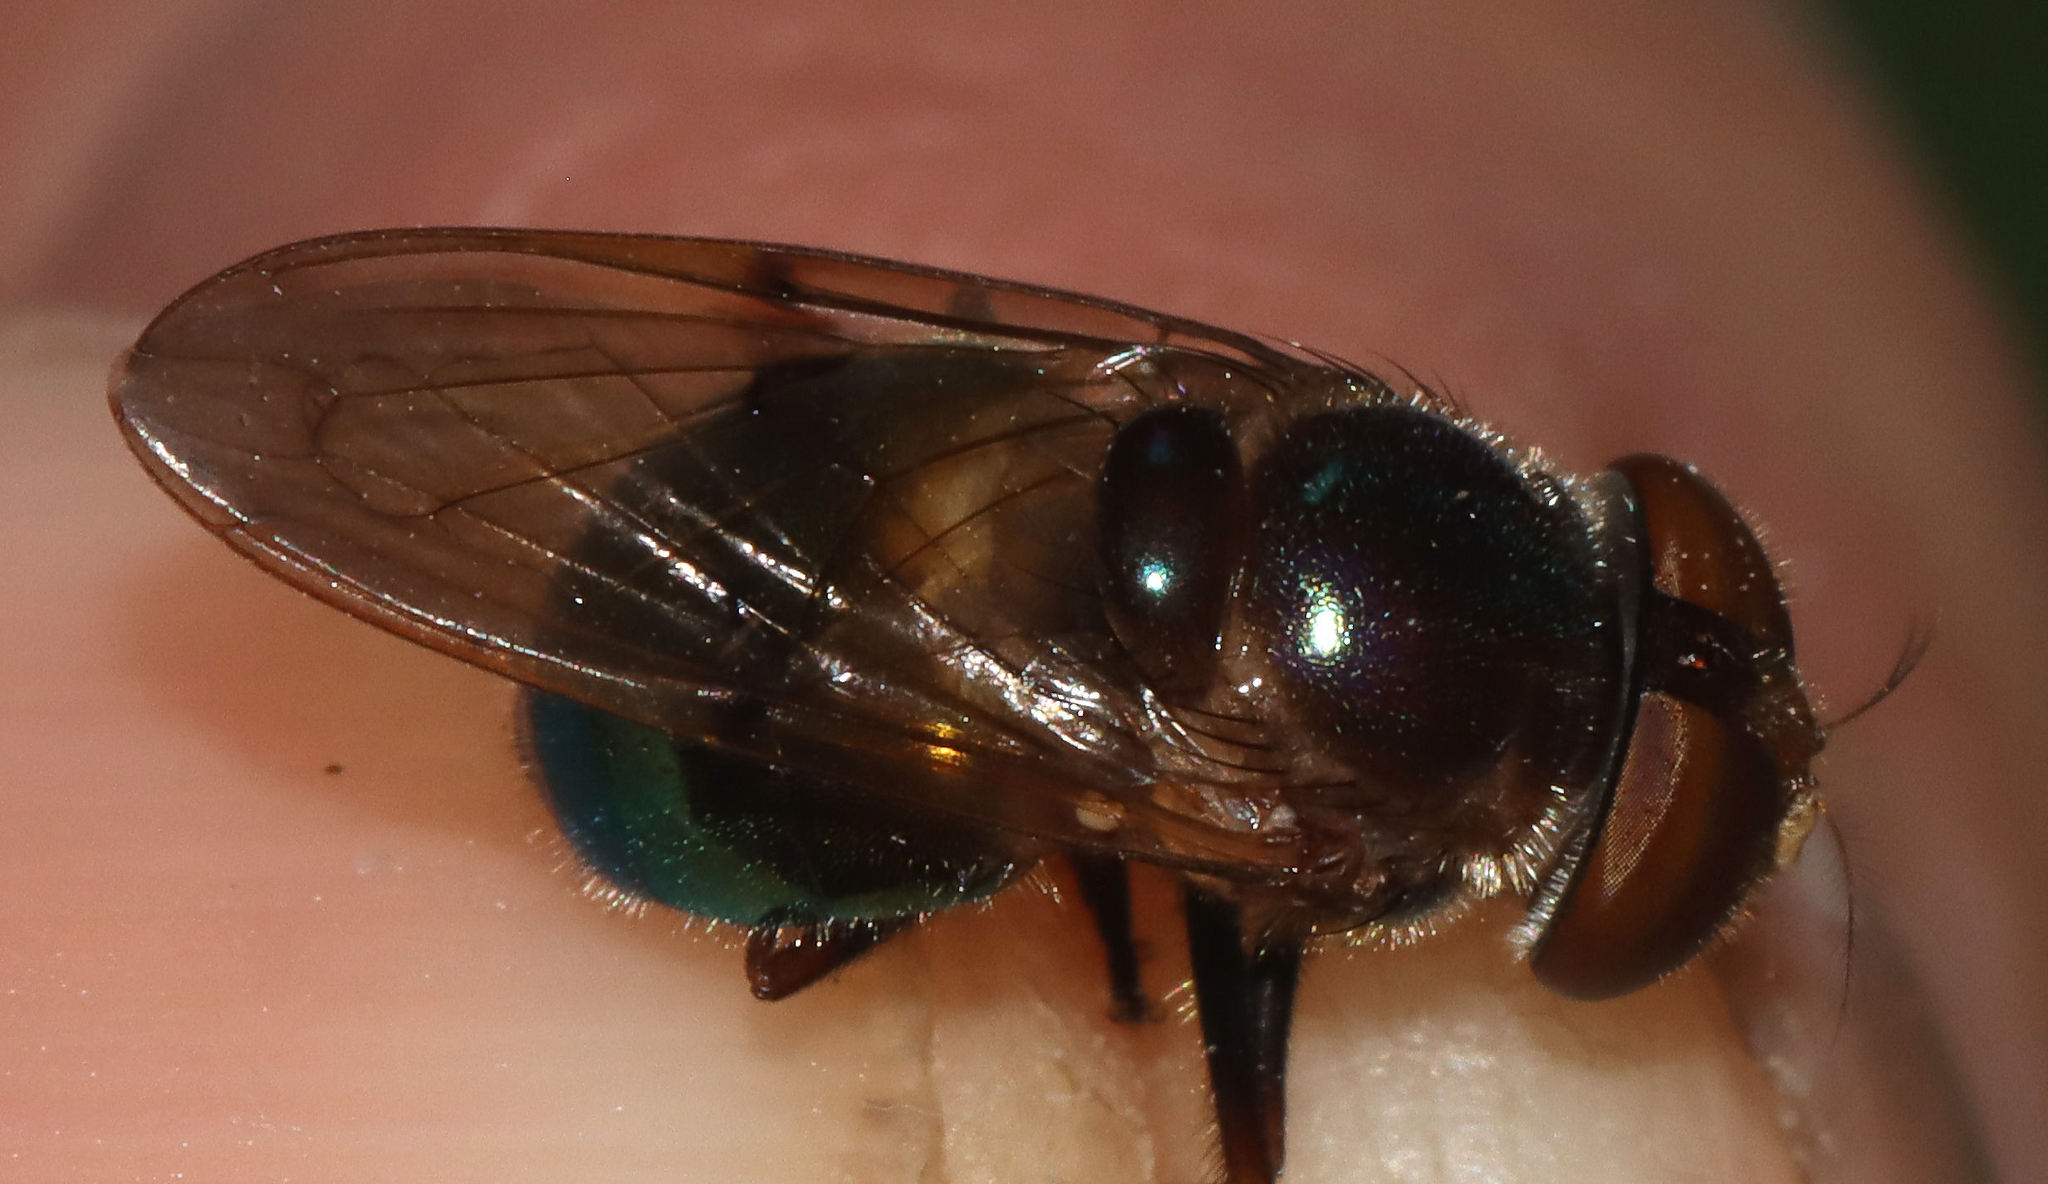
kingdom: Animalia
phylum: Arthropoda
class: Insecta
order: Diptera
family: Syrphidae
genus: Copestylum
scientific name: Copestylum vesicularium
